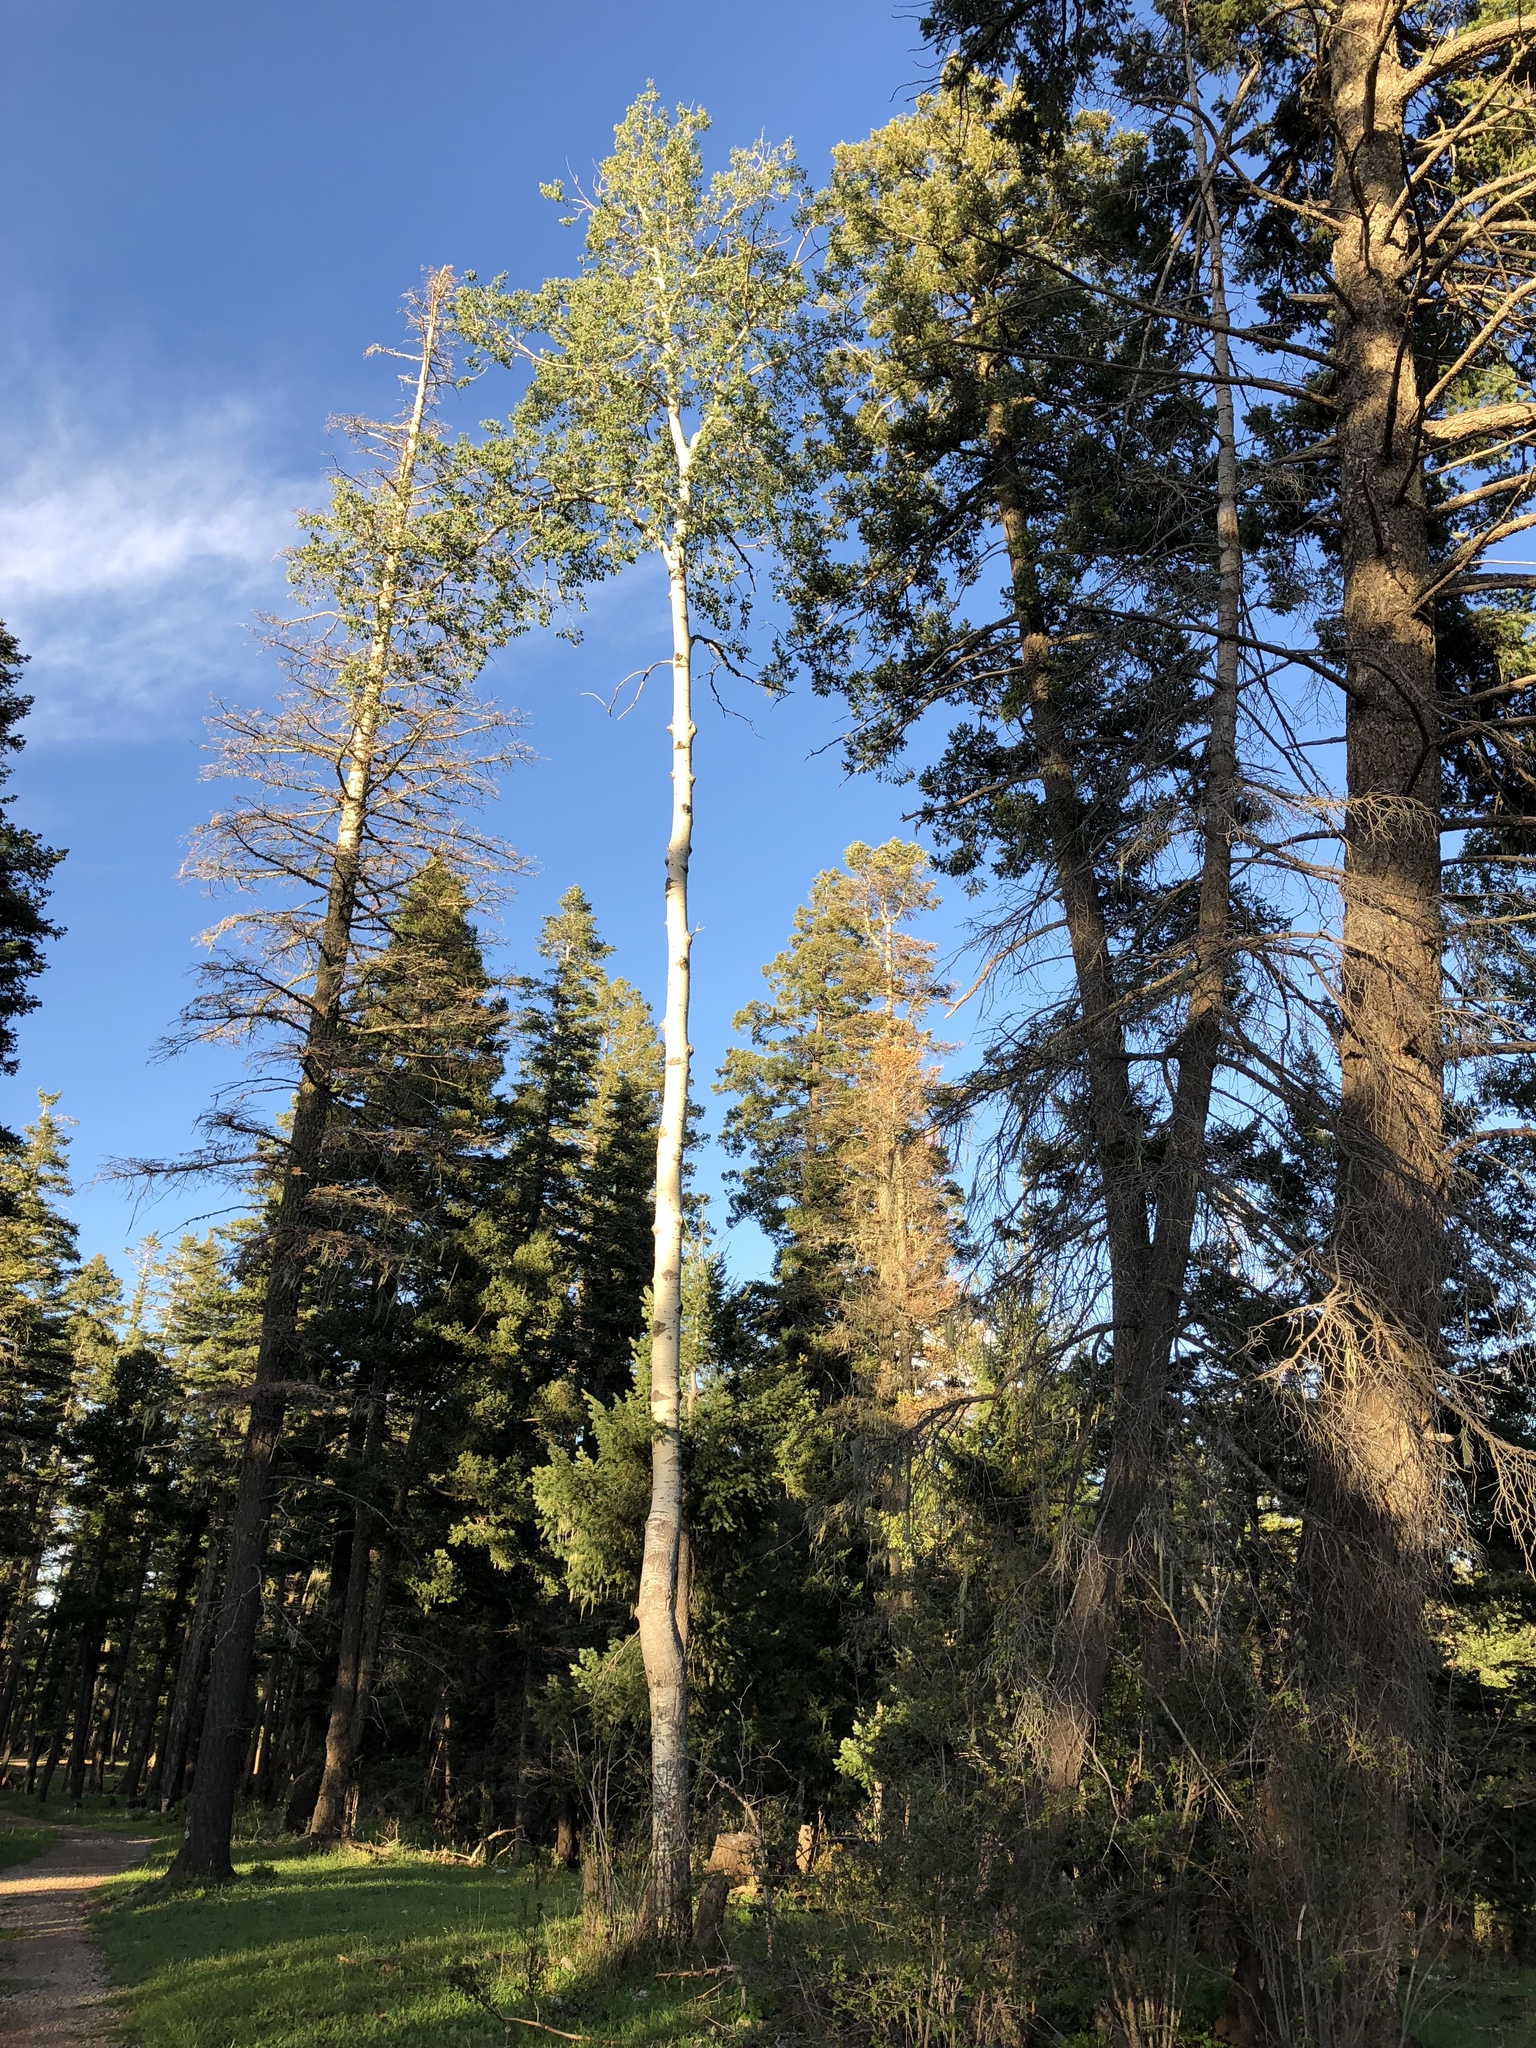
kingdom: Plantae
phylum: Tracheophyta
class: Magnoliopsida
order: Malpighiales
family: Salicaceae
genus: Populus
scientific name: Populus tremuloides
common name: Quaking aspen
